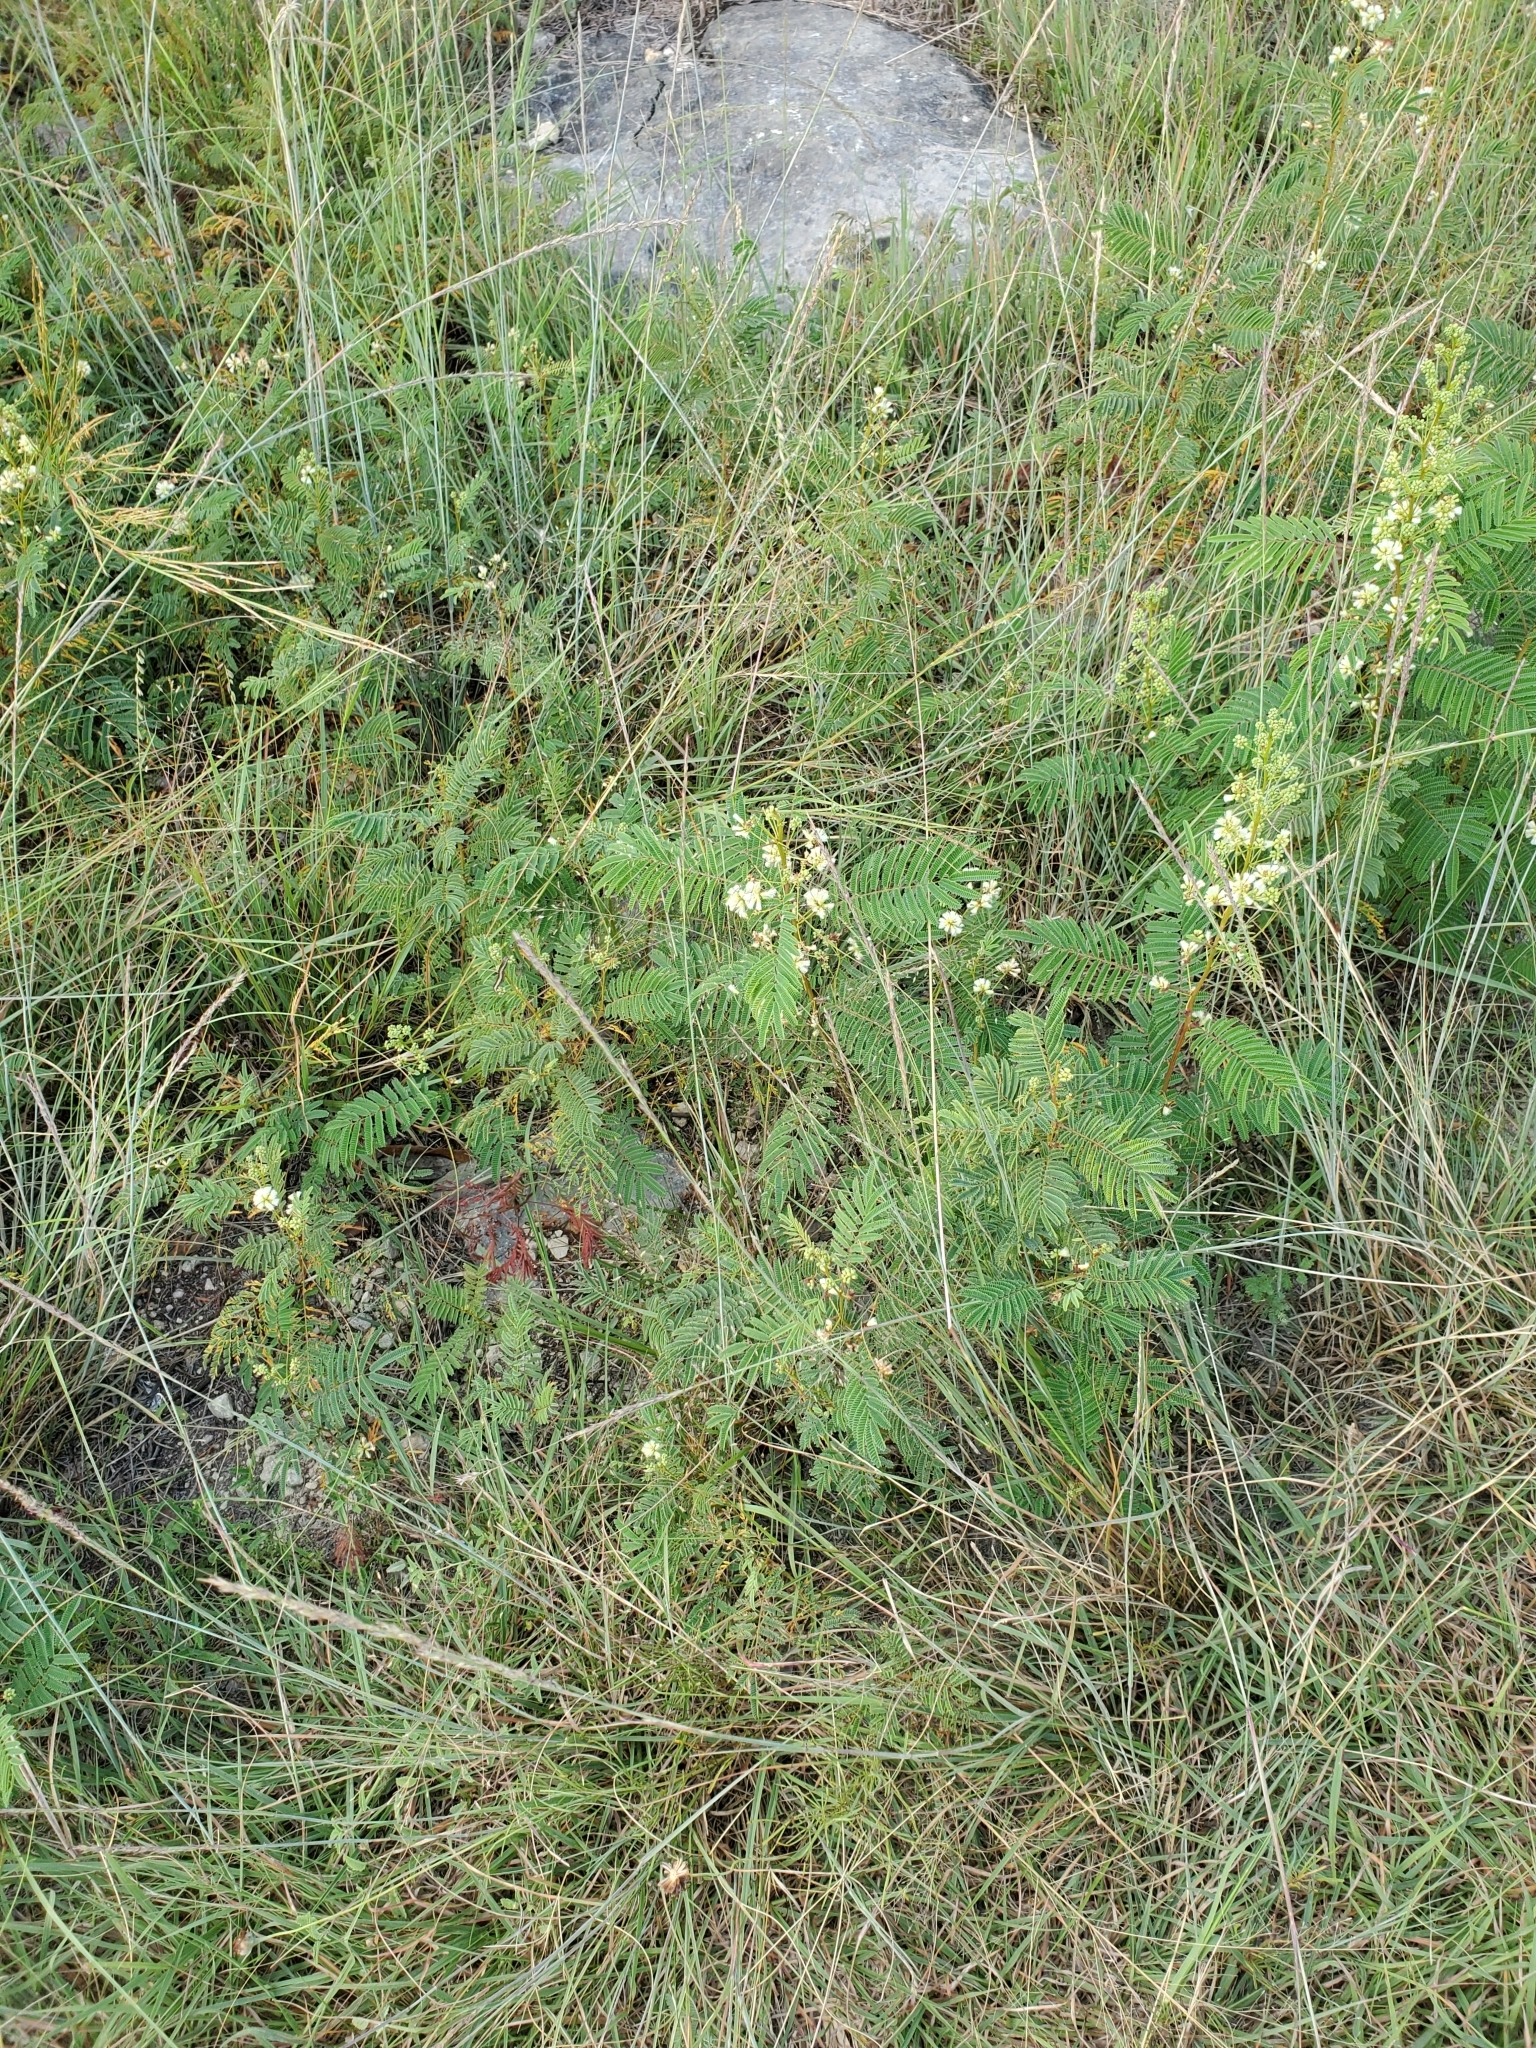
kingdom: Plantae
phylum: Tracheophyta
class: Magnoliopsida
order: Fabales
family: Fabaceae
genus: Acaciella
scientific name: Acaciella angustissima
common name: Prairie acacia
